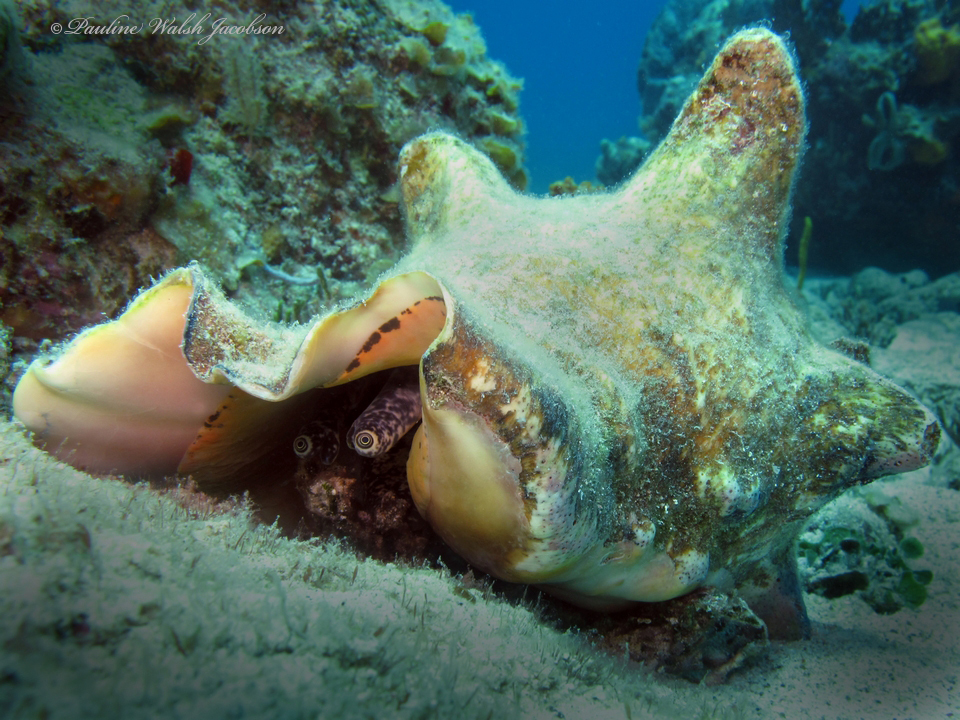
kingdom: Animalia
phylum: Mollusca
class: Gastropoda
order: Littorinimorpha
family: Strombidae
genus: Aliger
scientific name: Aliger gigas
